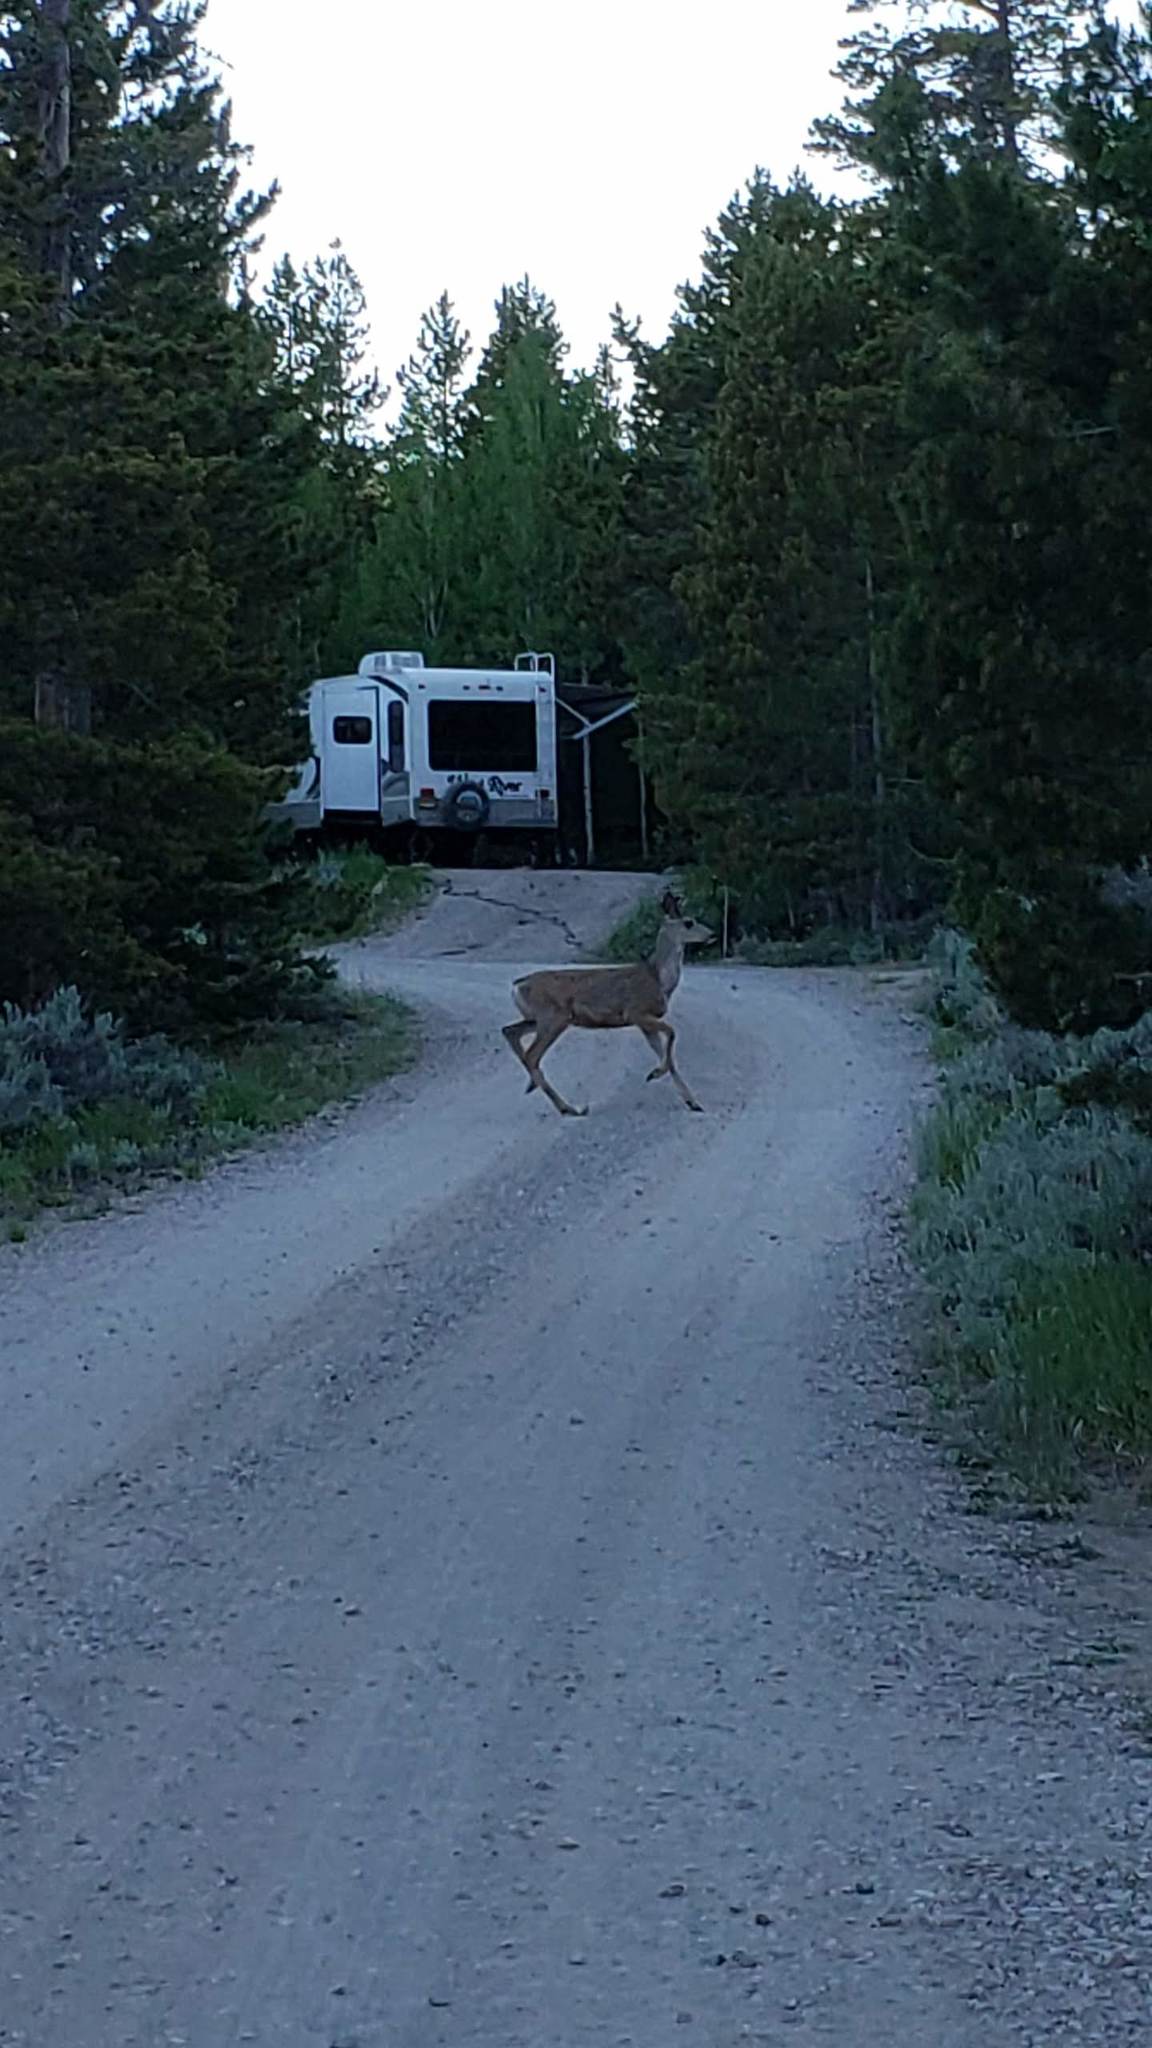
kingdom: Animalia
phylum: Chordata
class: Mammalia
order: Artiodactyla
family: Cervidae
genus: Odocoileus
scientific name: Odocoileus hemionus
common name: Mule deer
